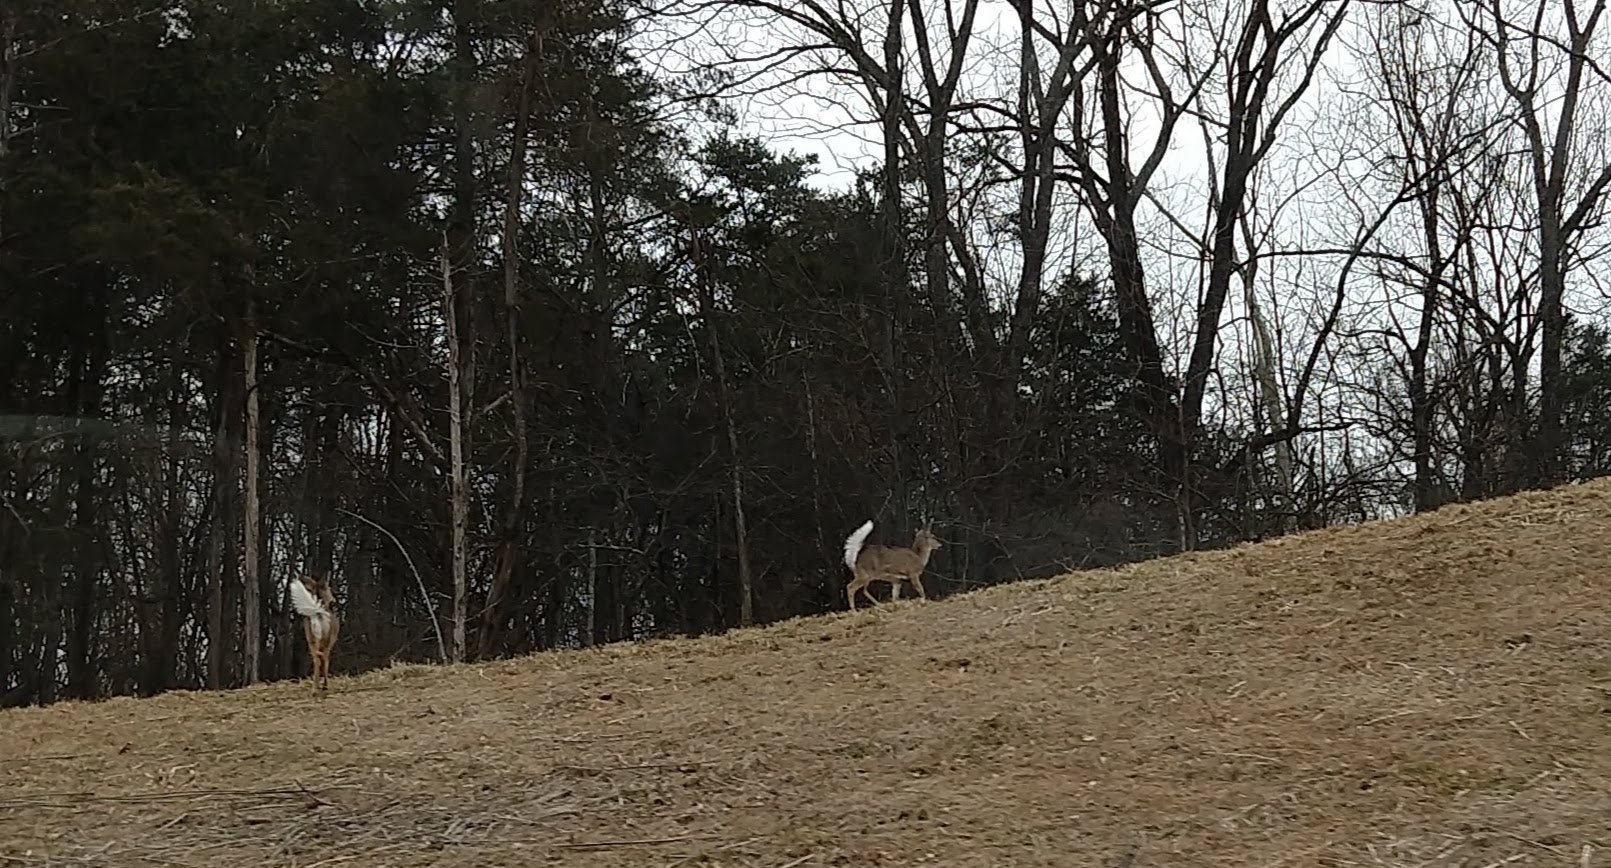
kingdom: Animalia
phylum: Chordata
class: Mammalia
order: Artiodactyla
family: Cervidae
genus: Odocoileus
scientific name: Odocoileus virginianus
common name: White-tailed deer
